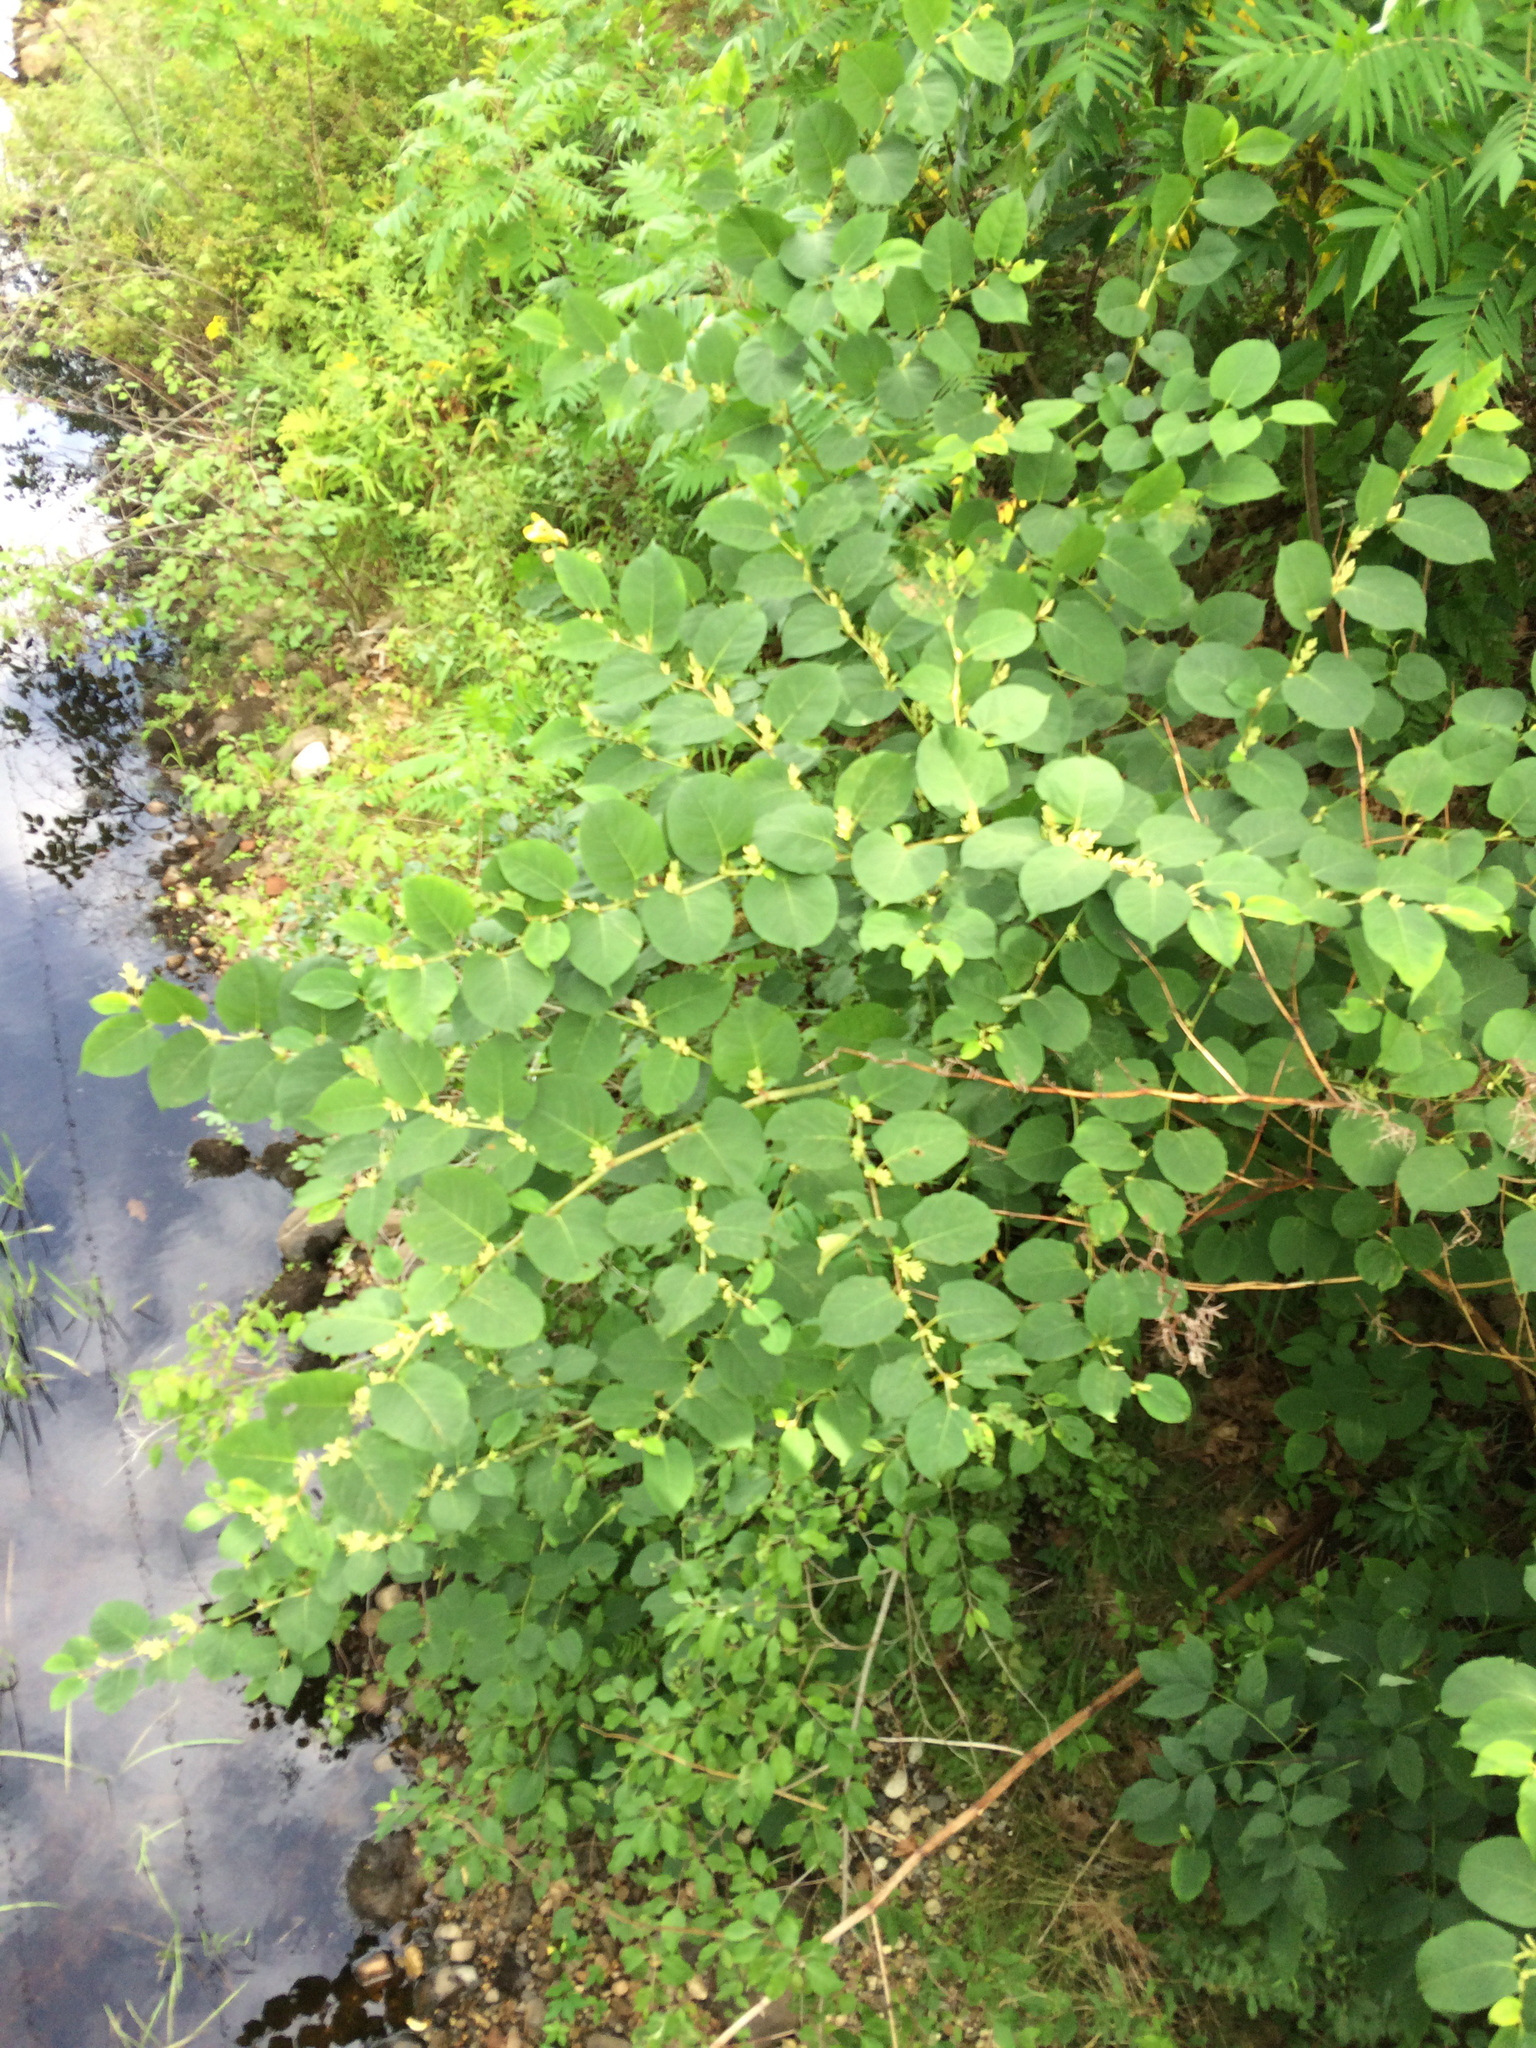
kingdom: Plantae
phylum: Tracheophyta
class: Magnoliopsida
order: Caryophyllales
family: Polygonaceae
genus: Reynoutria
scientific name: Reynoutria japonica
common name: Japanese knotweed
